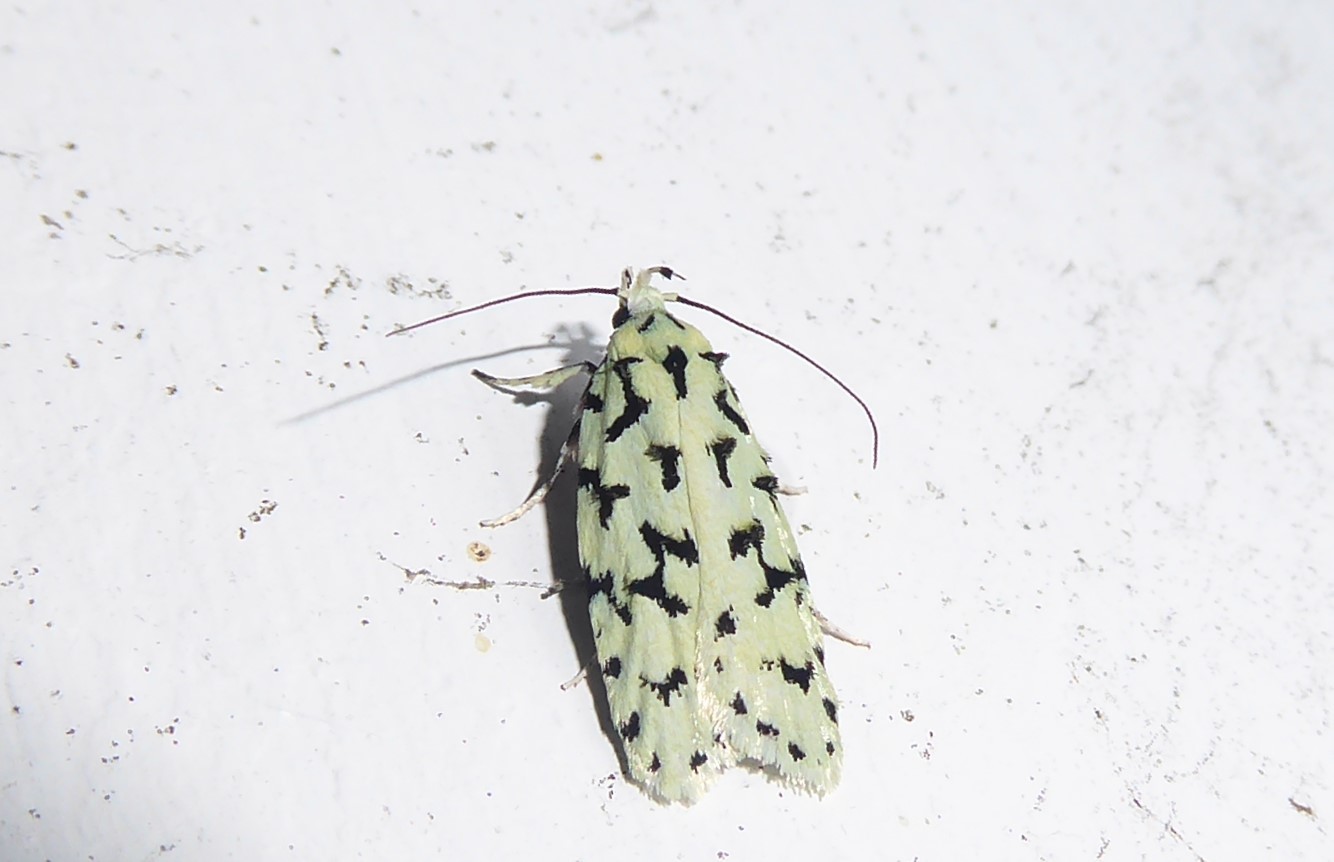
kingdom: Animalia
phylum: Arthropoda
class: Insecta
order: Lepidoptera
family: Oecophoridae
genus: Izatha
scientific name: Izatha huttoni
